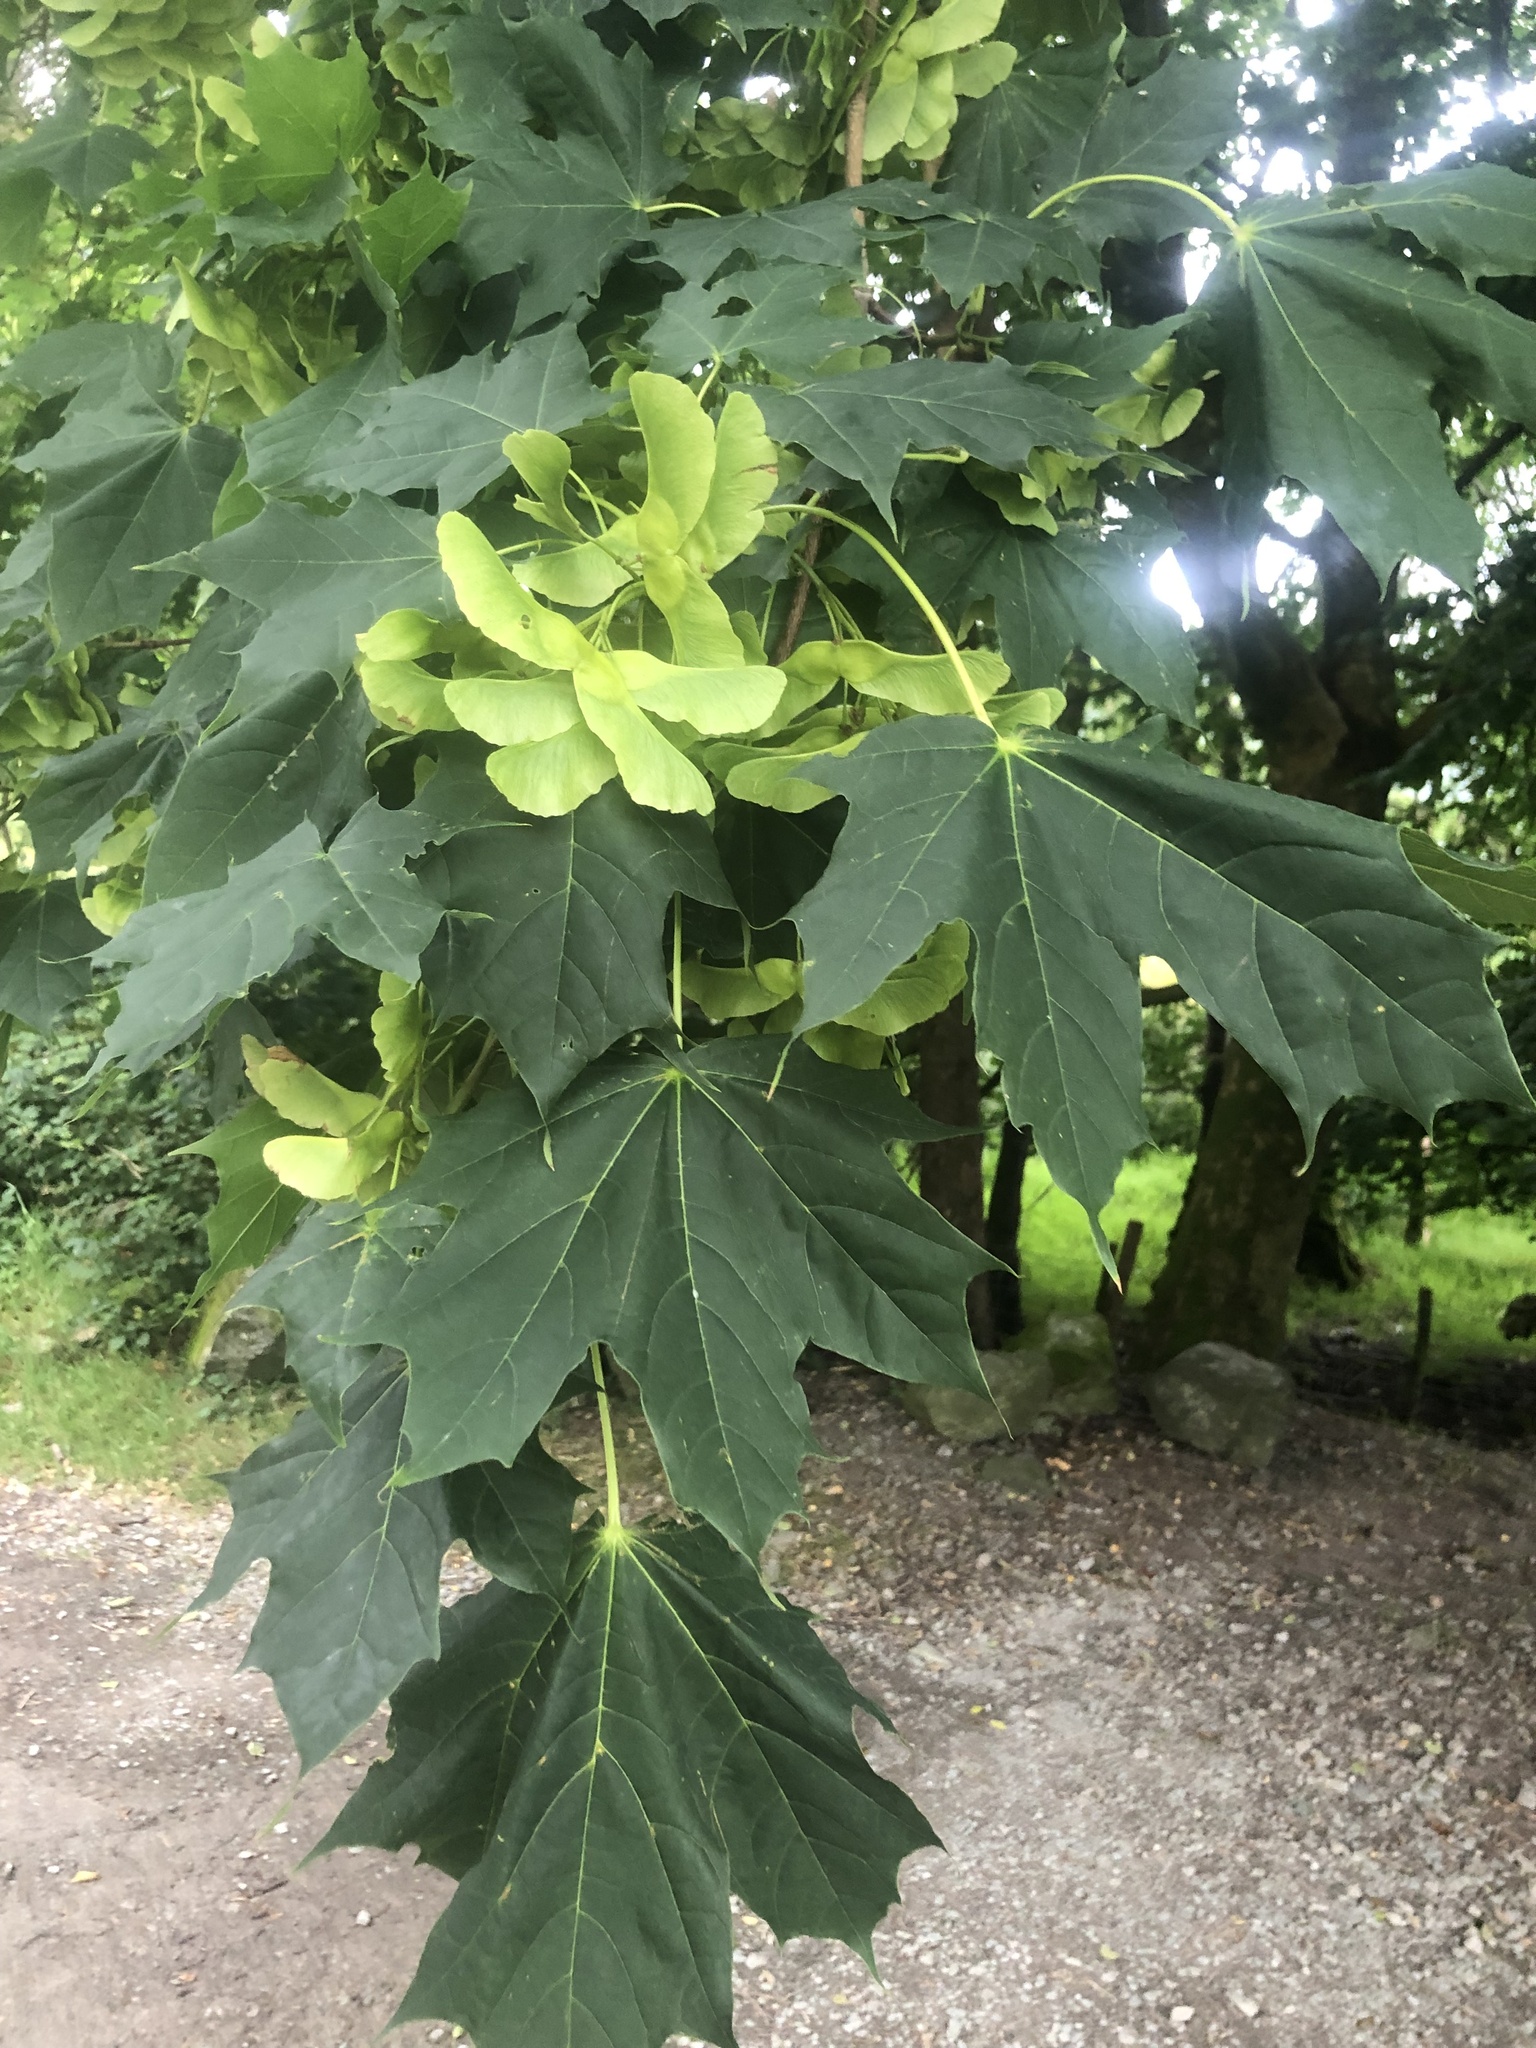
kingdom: Plantae
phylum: Tracheophyta
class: Magnoliopsida
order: Sapindales
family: Sapindaceae
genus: Acer
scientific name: Acer platanoides
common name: Norway maple
